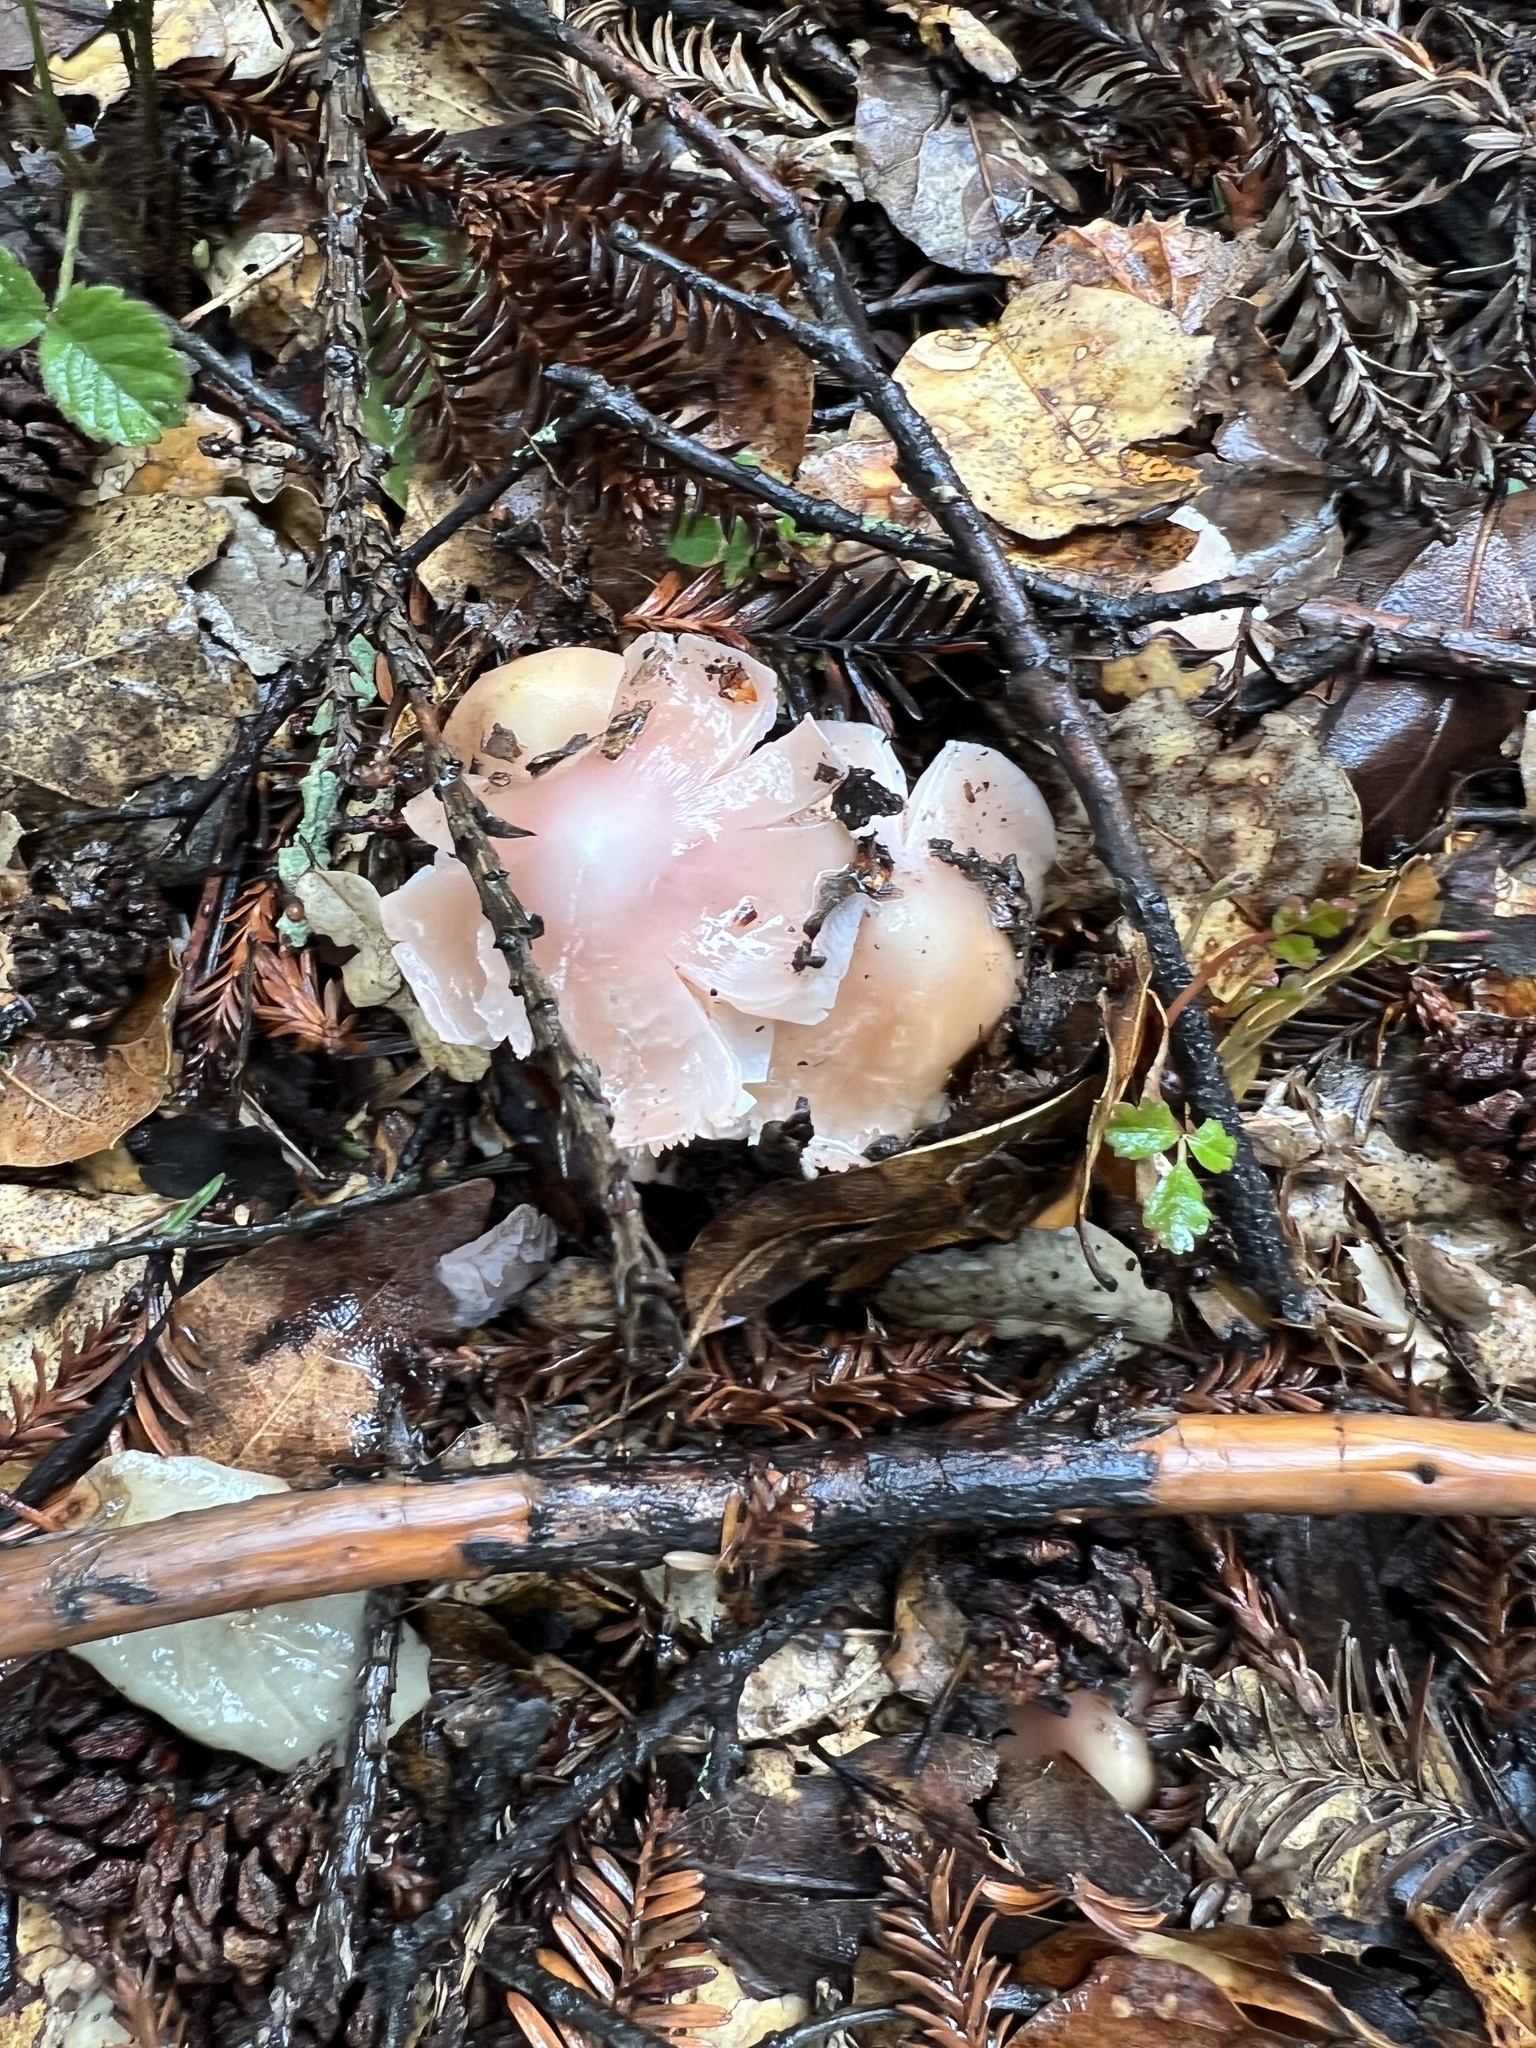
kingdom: Fungi
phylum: Basidiomycota
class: Agaricomycetes
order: Agaricales
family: Hygrophoraceae
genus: Porpolomopsis
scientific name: Porpolomopsis calyptriformis
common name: Pink waxcap
